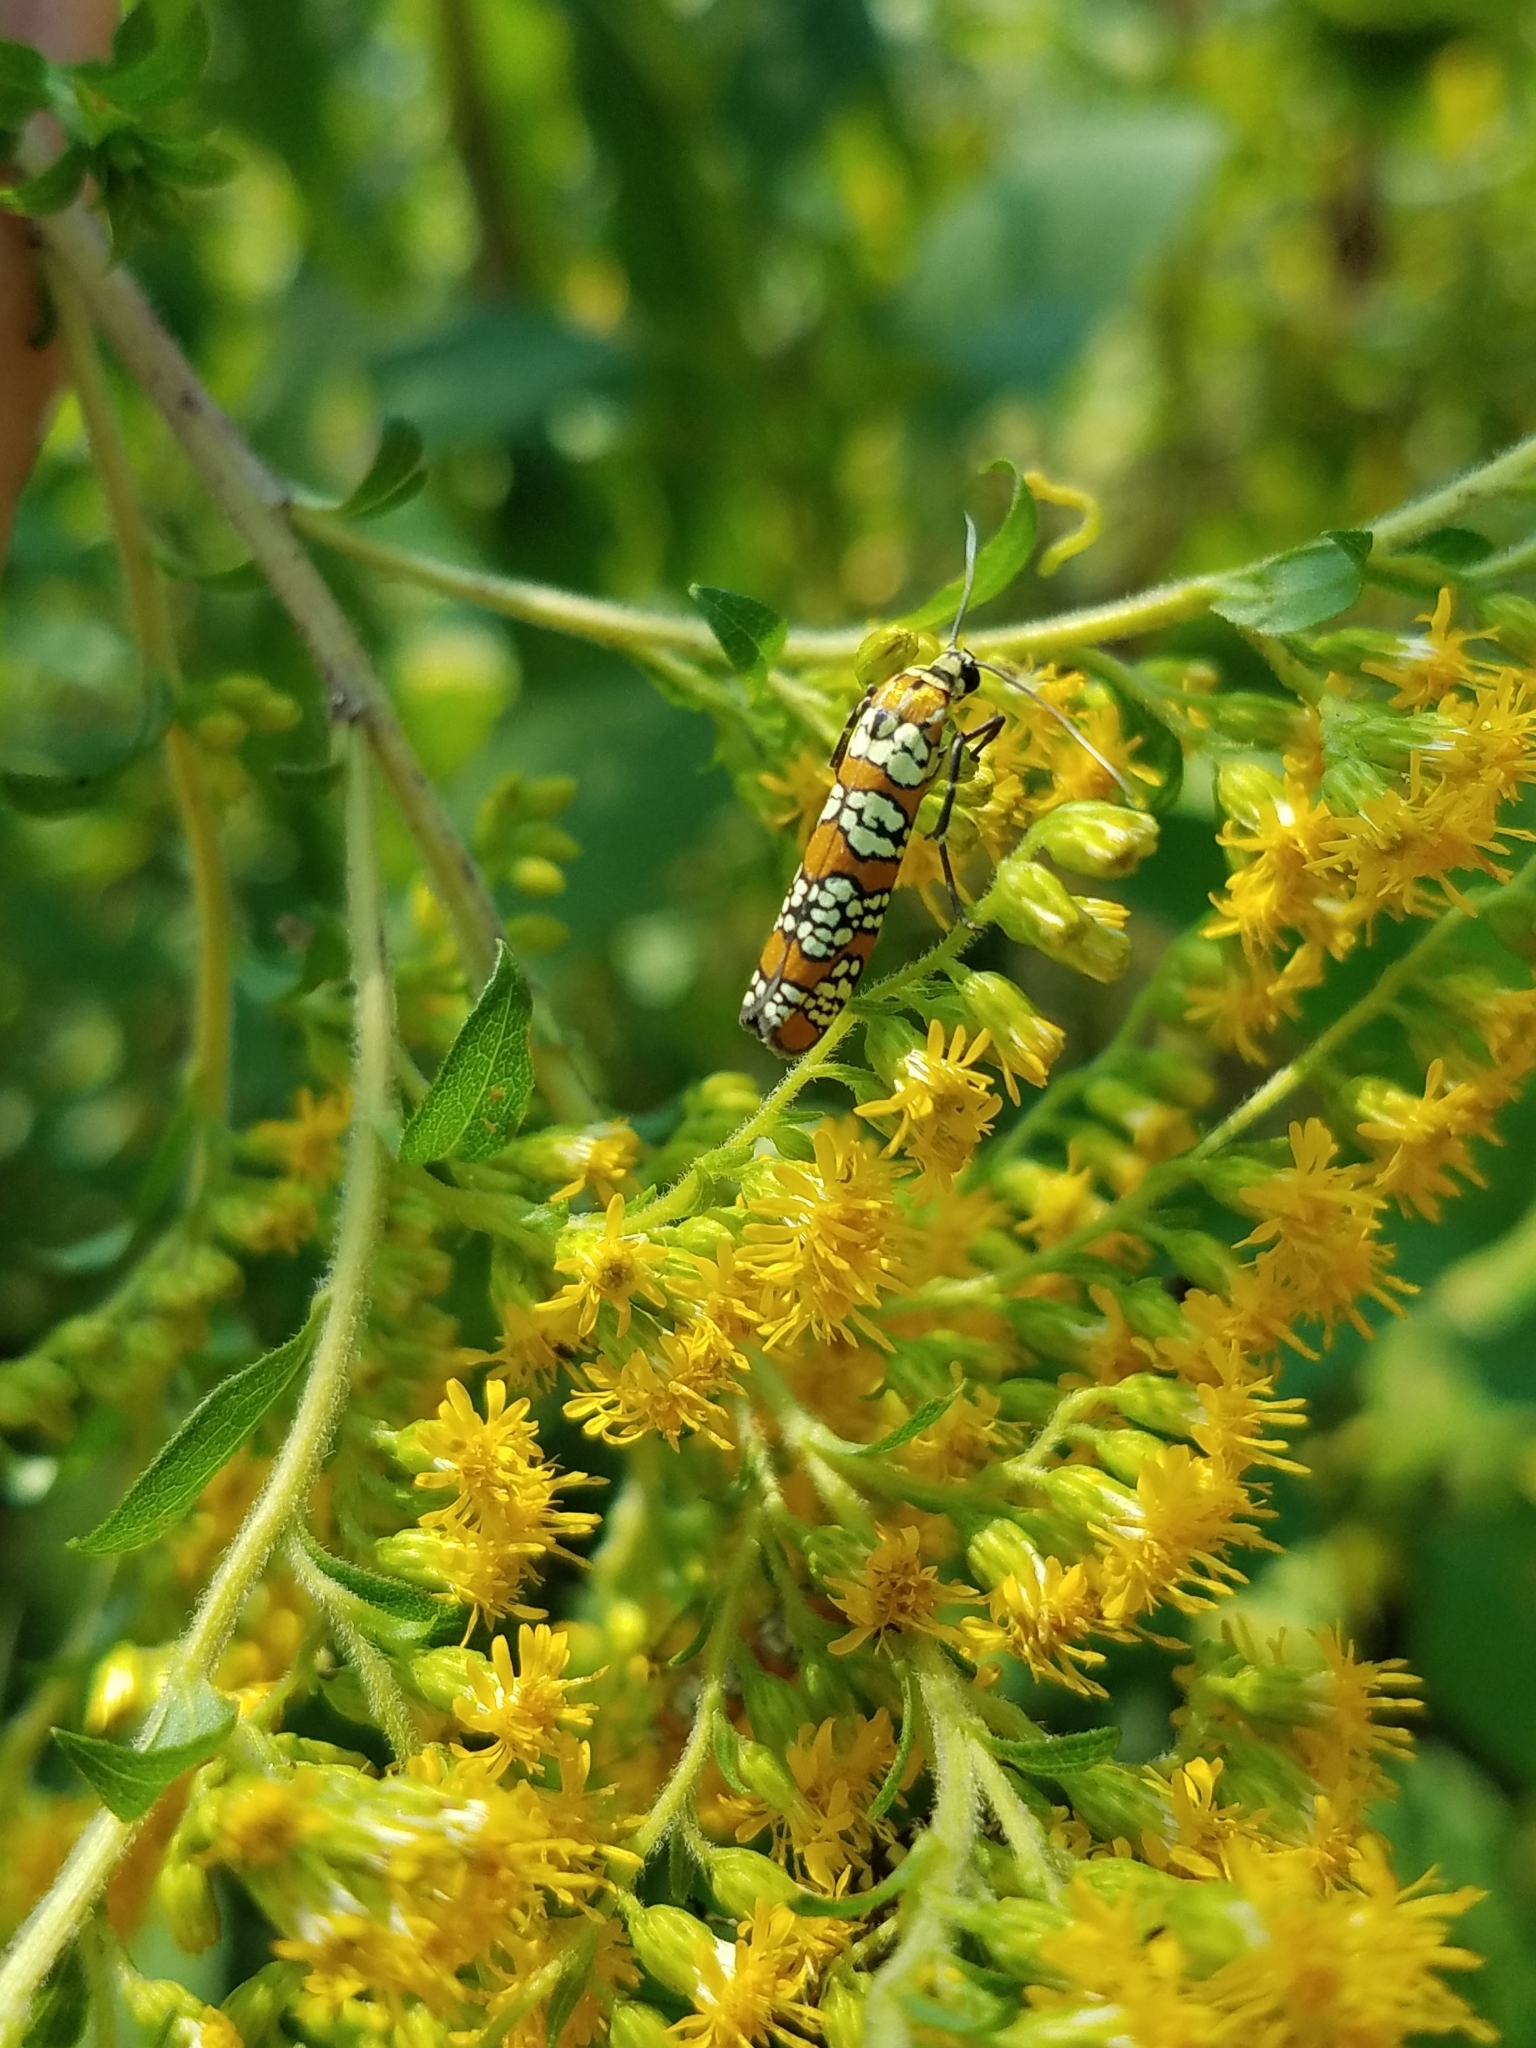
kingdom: Animalia
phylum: Arthropoda
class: Insecta
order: Lepidoptera
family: Attevidae
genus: Atteva
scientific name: Atteva punctella
